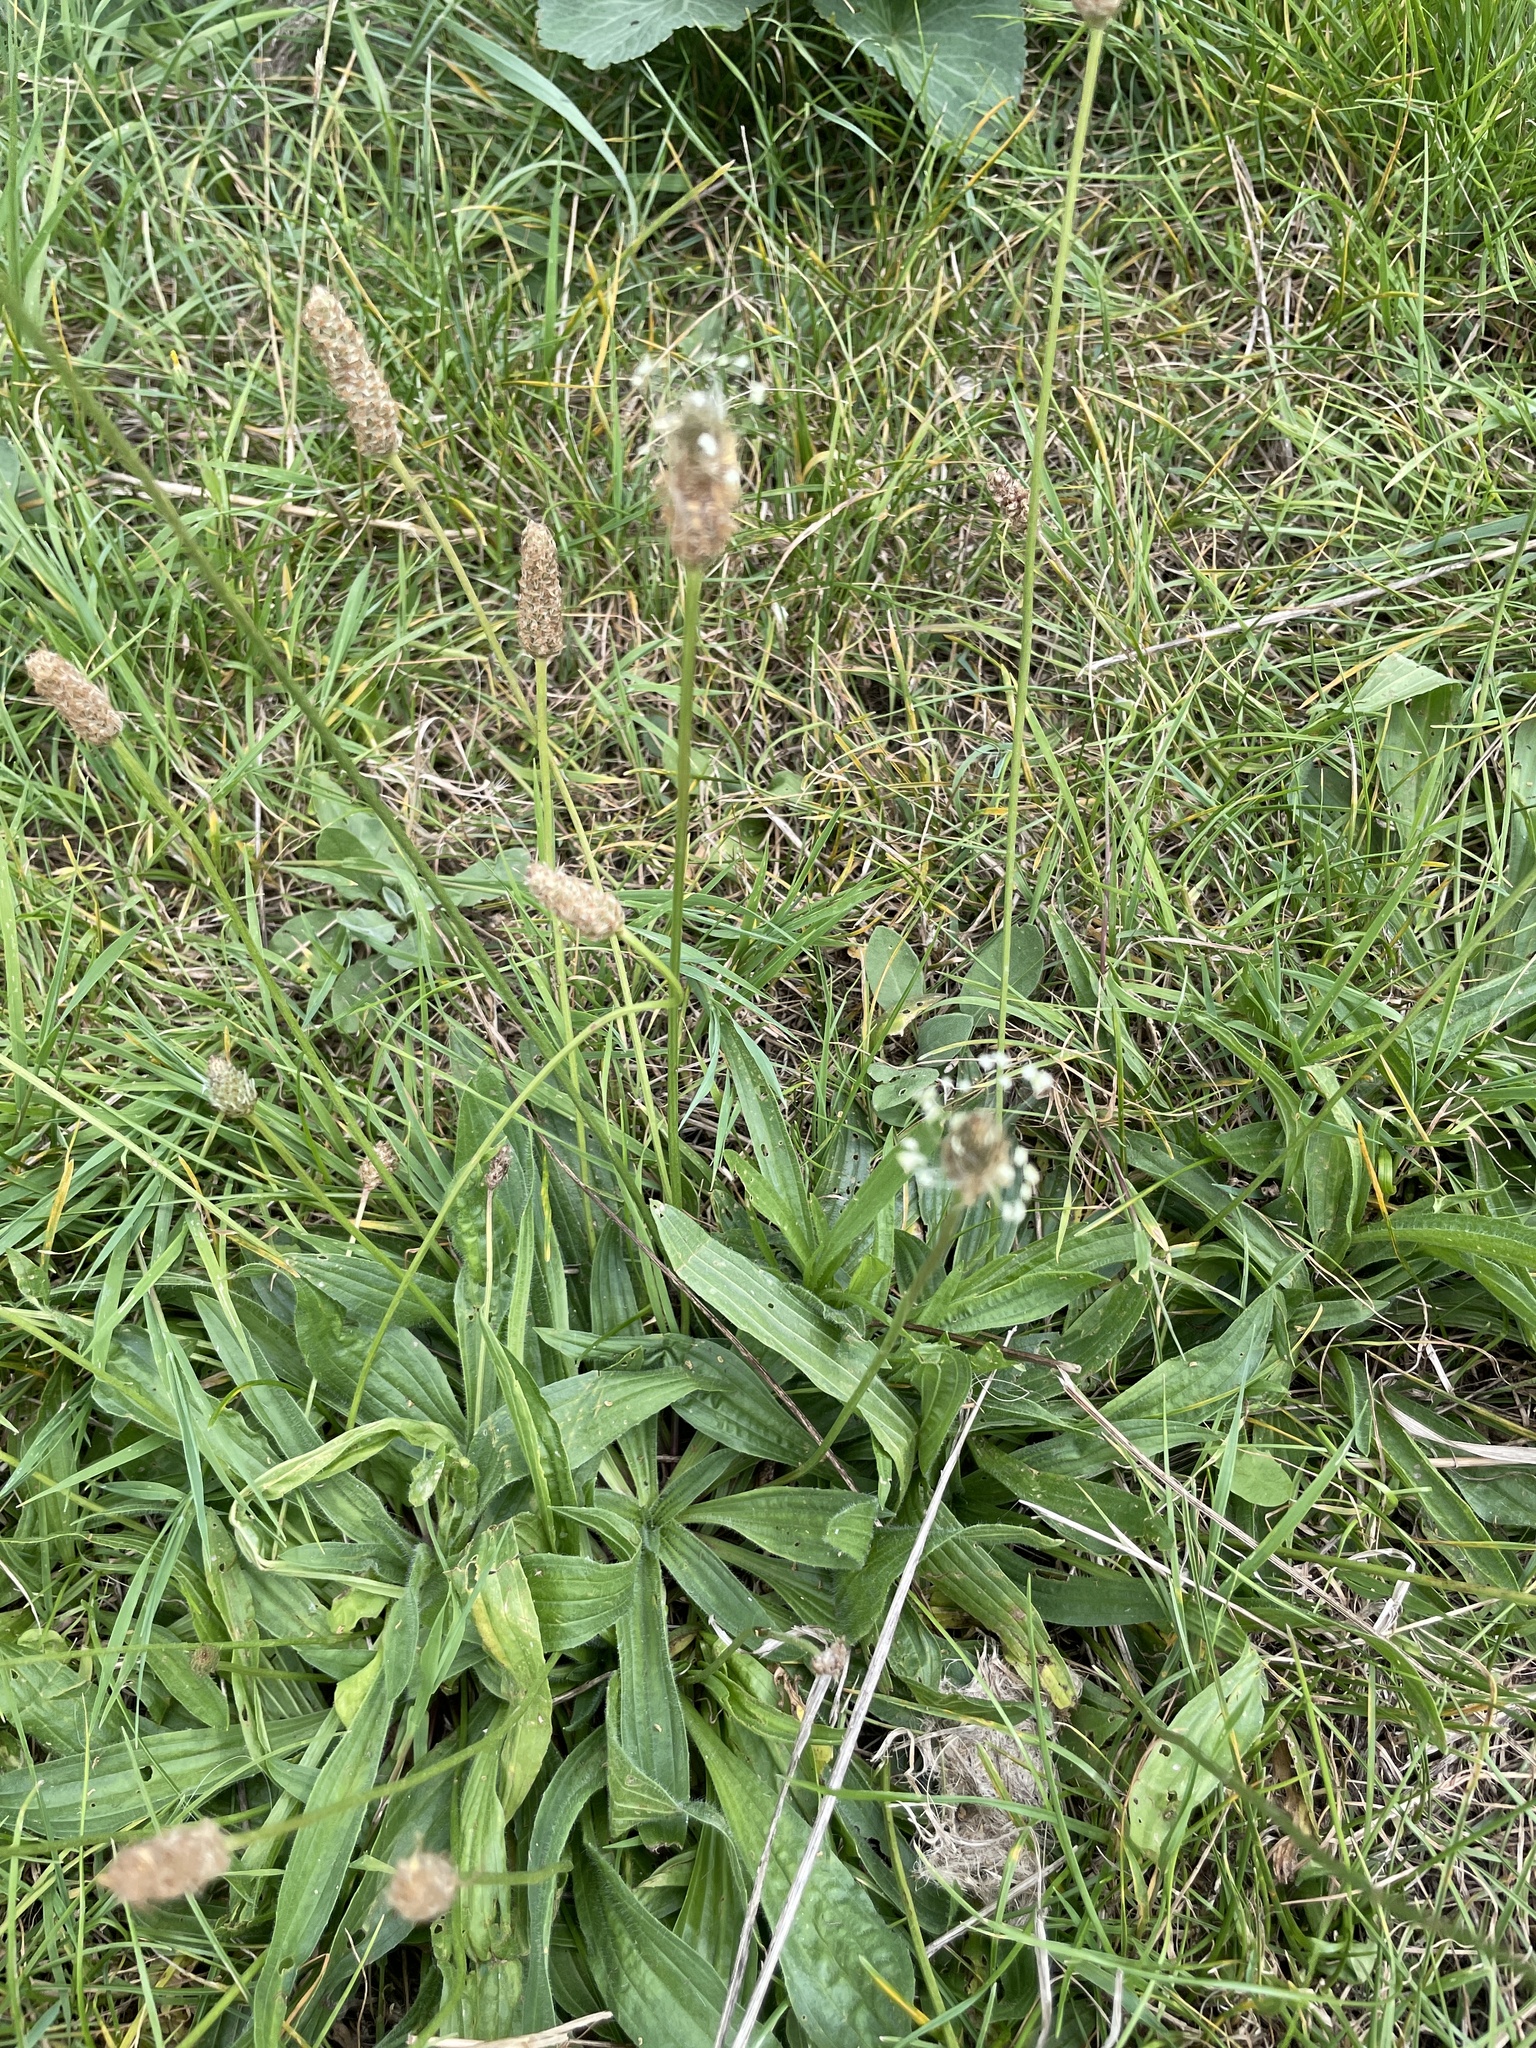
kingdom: Plantae
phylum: Tracheophyta
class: Magnoliopsida
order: Lamiales
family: Plantaginaceae
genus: Plantago
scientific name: Plantago lanceolata
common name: Ribwort plantain
